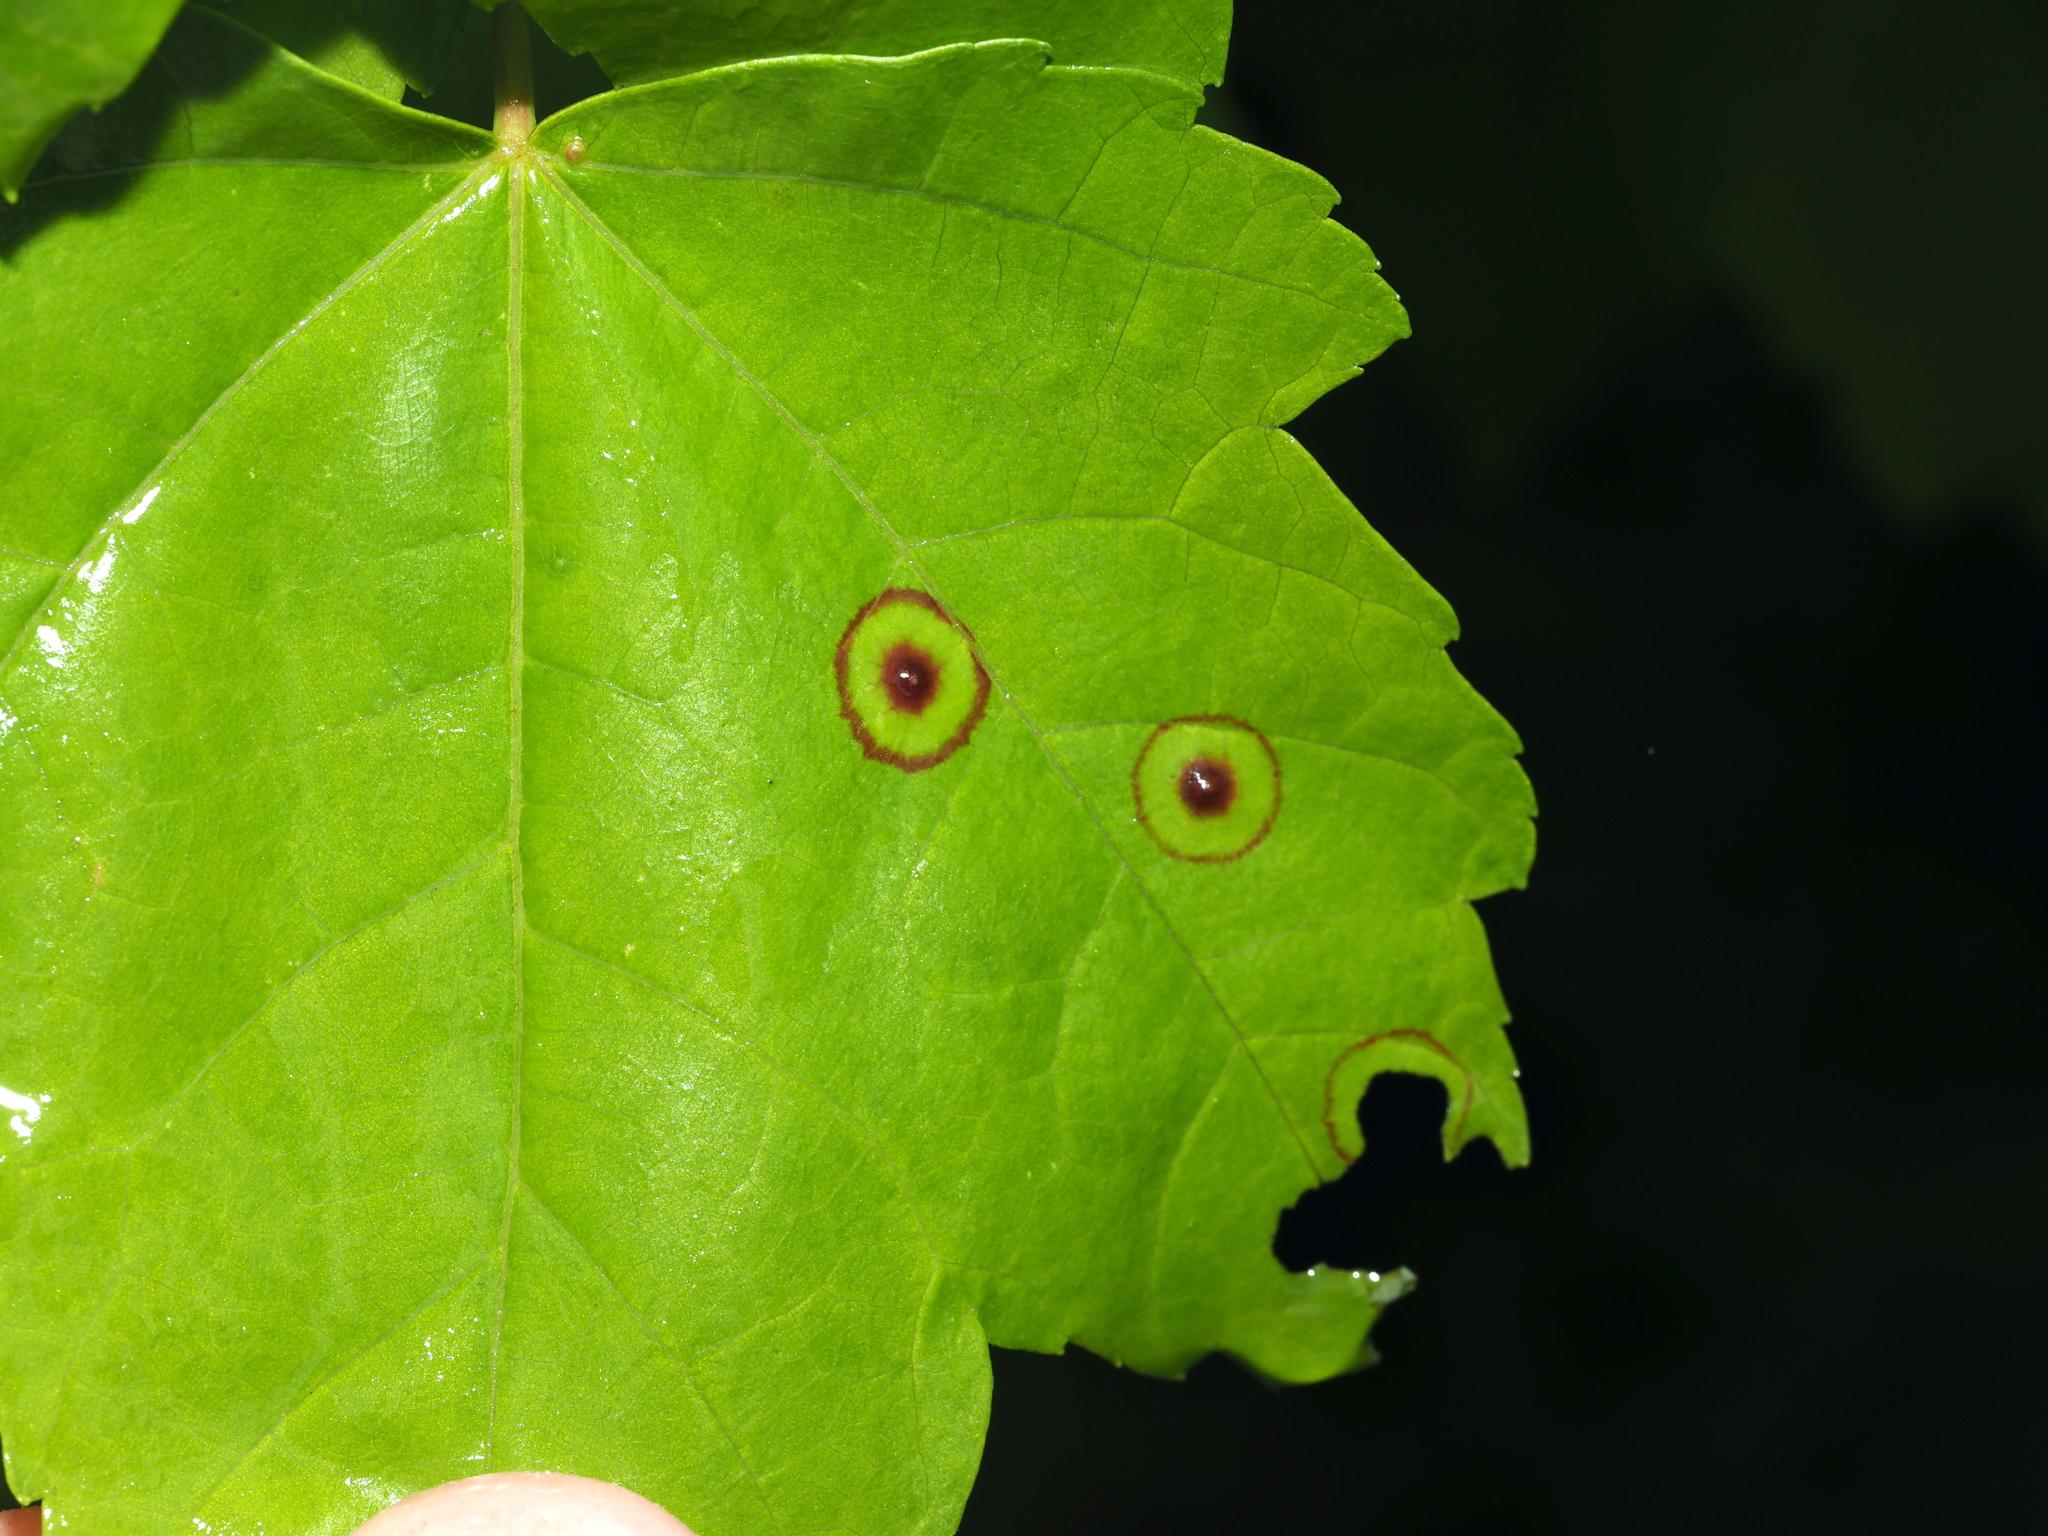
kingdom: Animalia
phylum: Arthropoda
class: Insecta
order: Diptera
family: Cecidomyiidae
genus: Acericecis
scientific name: Acericecis ocellaris
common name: Ocellate gall midge
